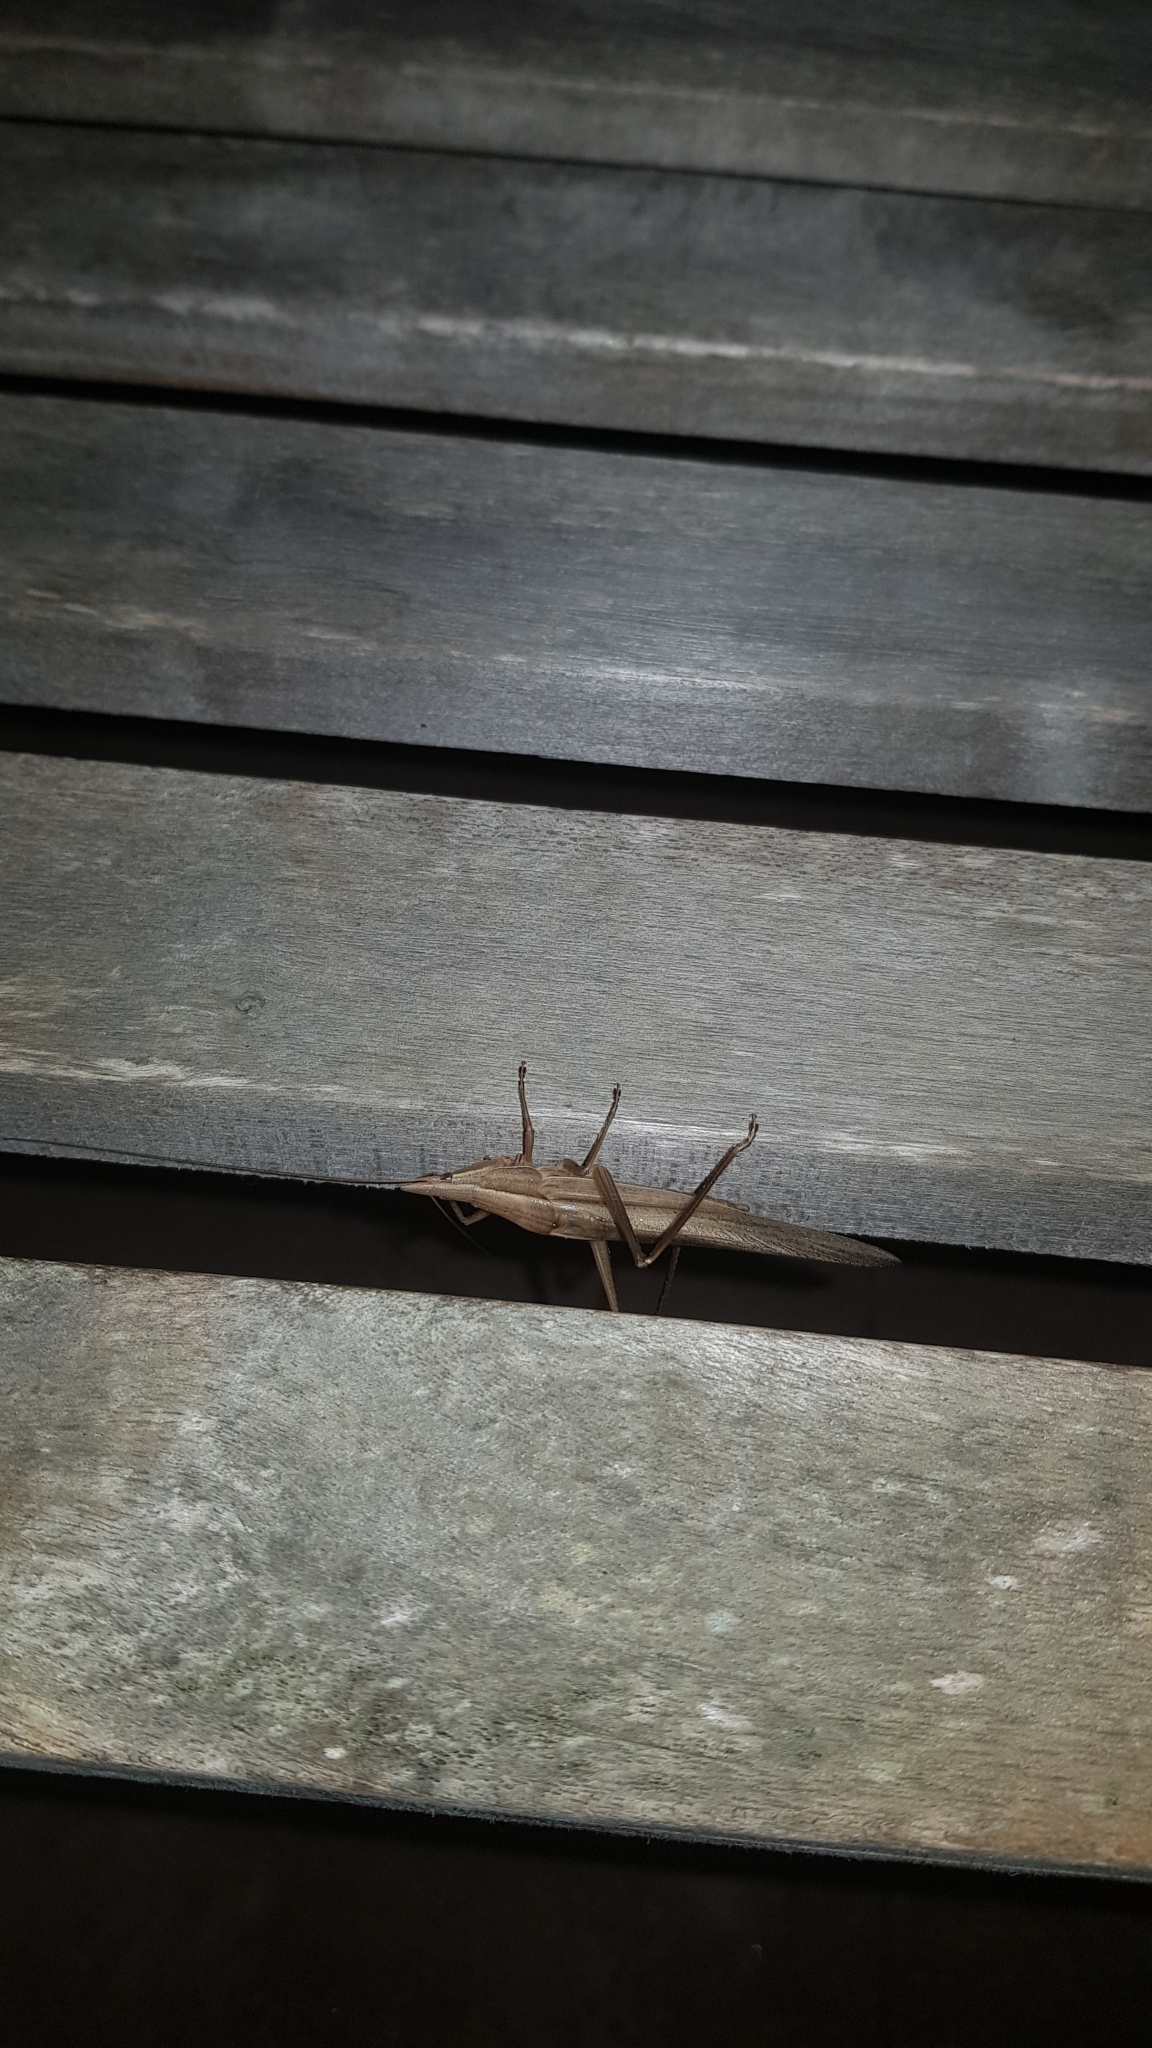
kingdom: Animalia
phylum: Arthropoda
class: Insecta
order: Orthoptera
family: Tettigoniidae
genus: Pseudorhynchus
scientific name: Pseudorhynchus lessonii
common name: Lesson's mimicking snout nose
